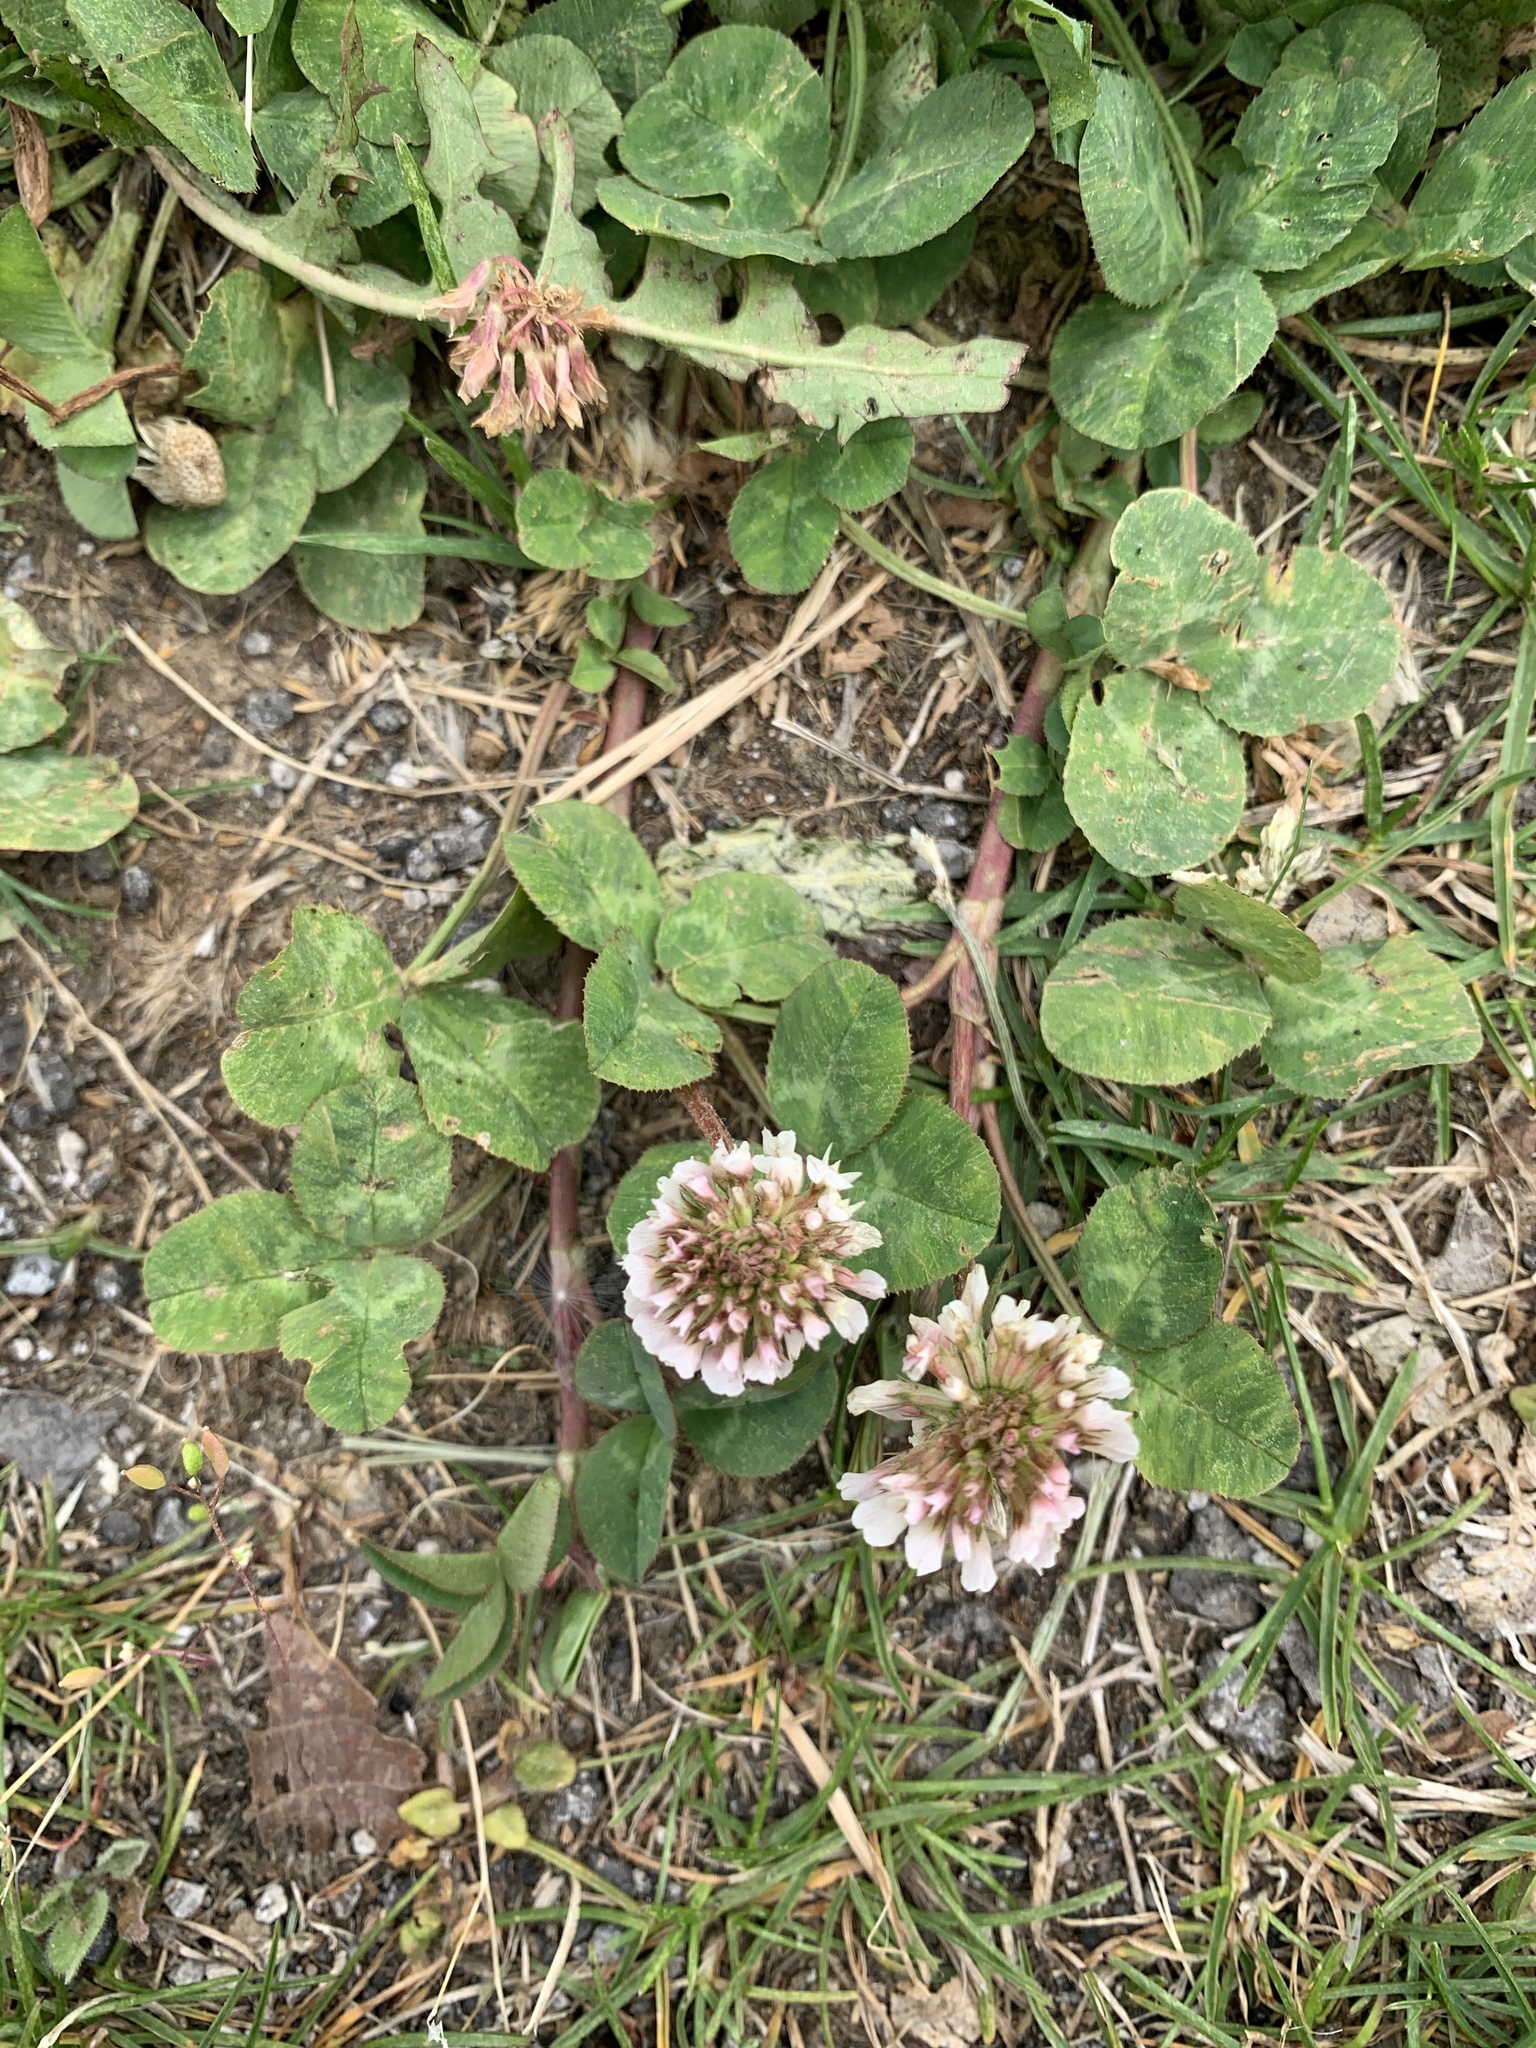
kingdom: Plantae
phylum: Tracheophyta
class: Magnoliopsida
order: Fabales
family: Fabaceae
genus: Trifolium
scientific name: Trifolium repens
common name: White clover
